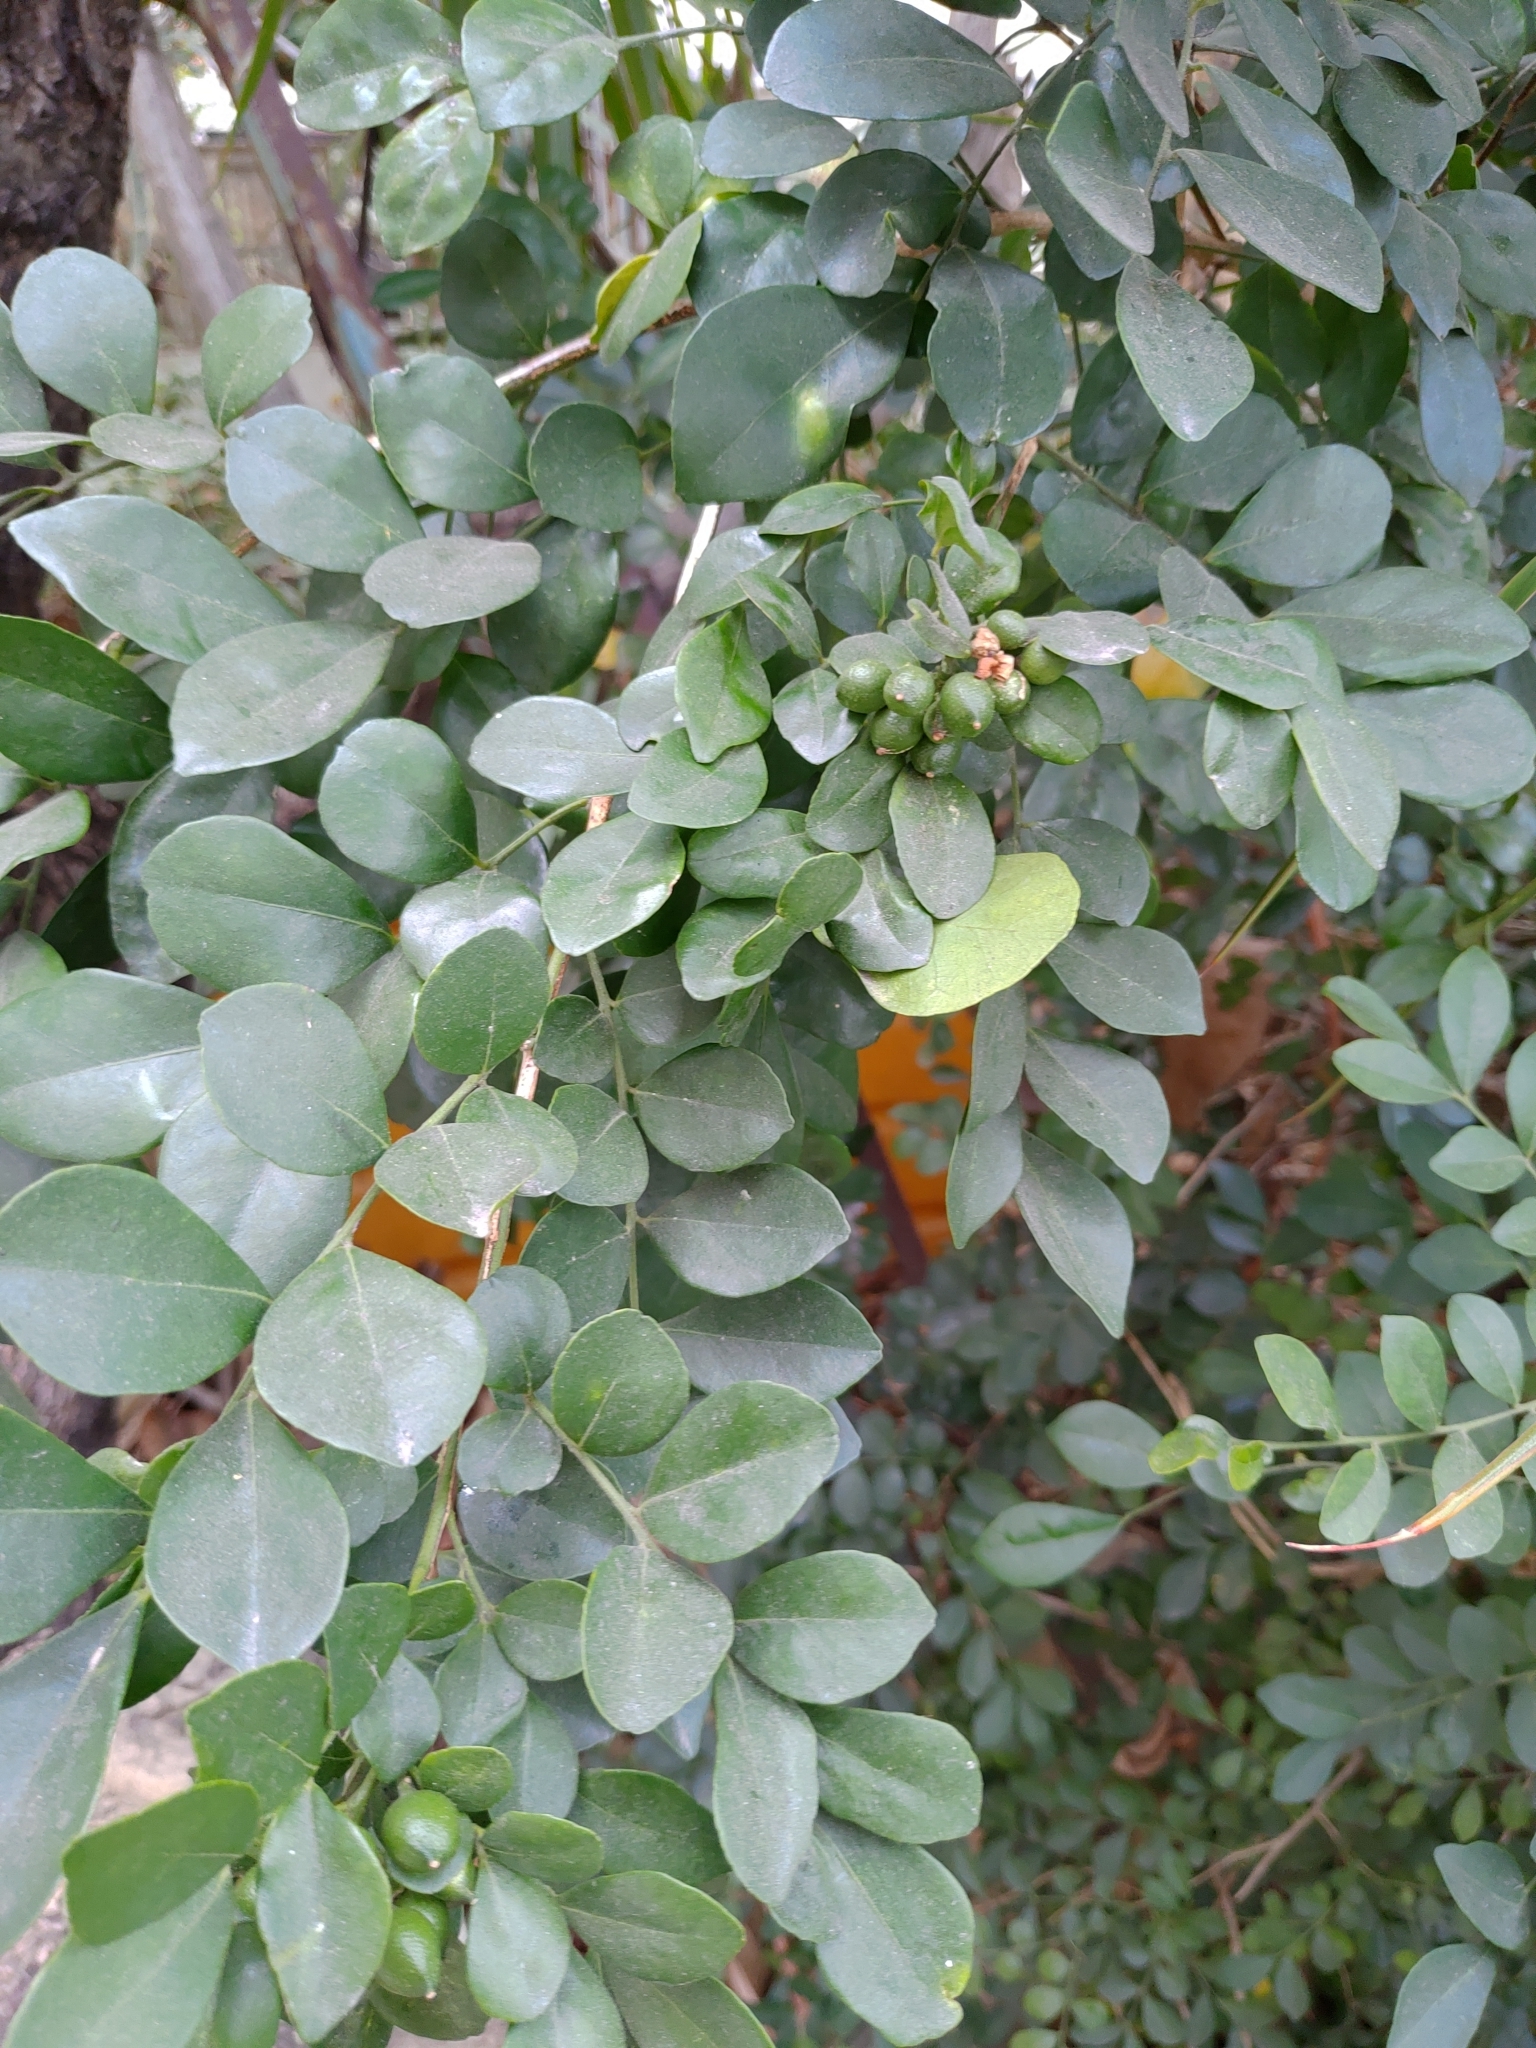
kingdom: Plantae
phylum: Tracheophyta
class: Magnoliopsida
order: Sapindales
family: Rutaceae
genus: Murraya
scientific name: Murraya paniculata
